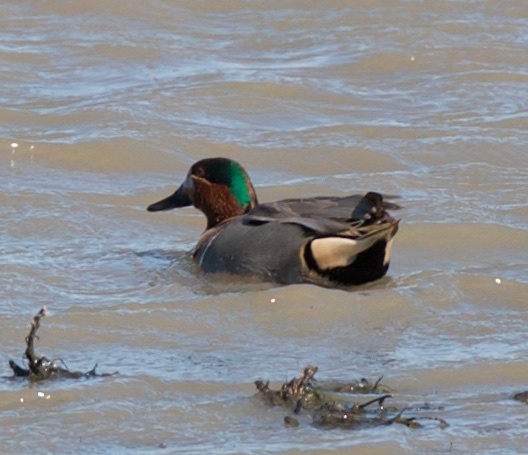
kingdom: Animalia
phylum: Chordata
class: Aves
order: Anseriformes
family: Anatidae
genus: Anas
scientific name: Anas crecca
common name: Eurasian teal
